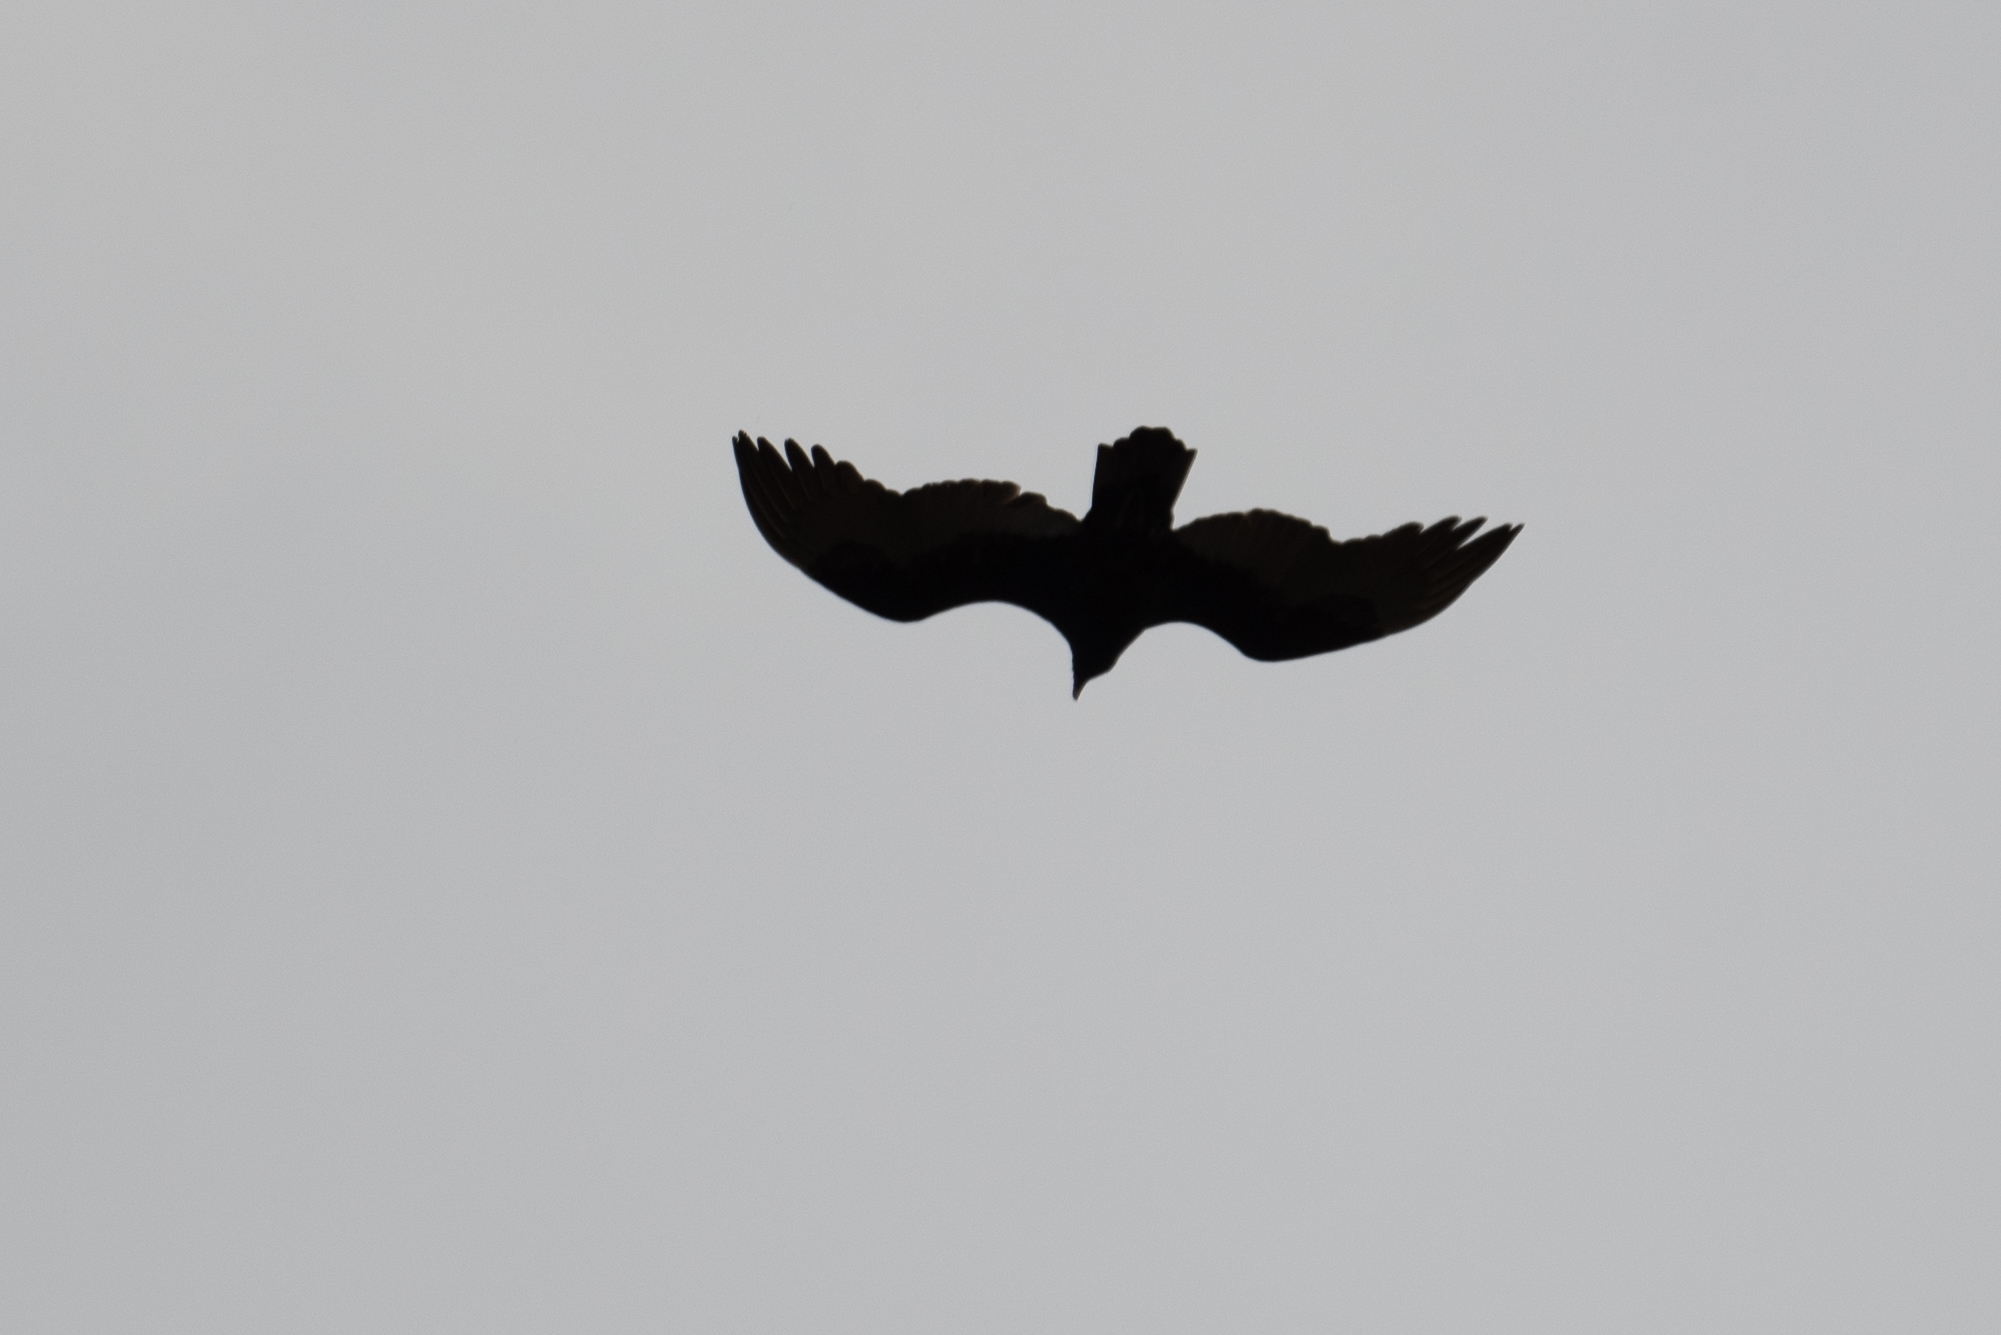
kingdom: Animalia
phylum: Chordata
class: Aves
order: Accipitriformes
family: Cathartidae
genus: Cathartes
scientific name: Cathartes aura
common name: Turkey vulture
